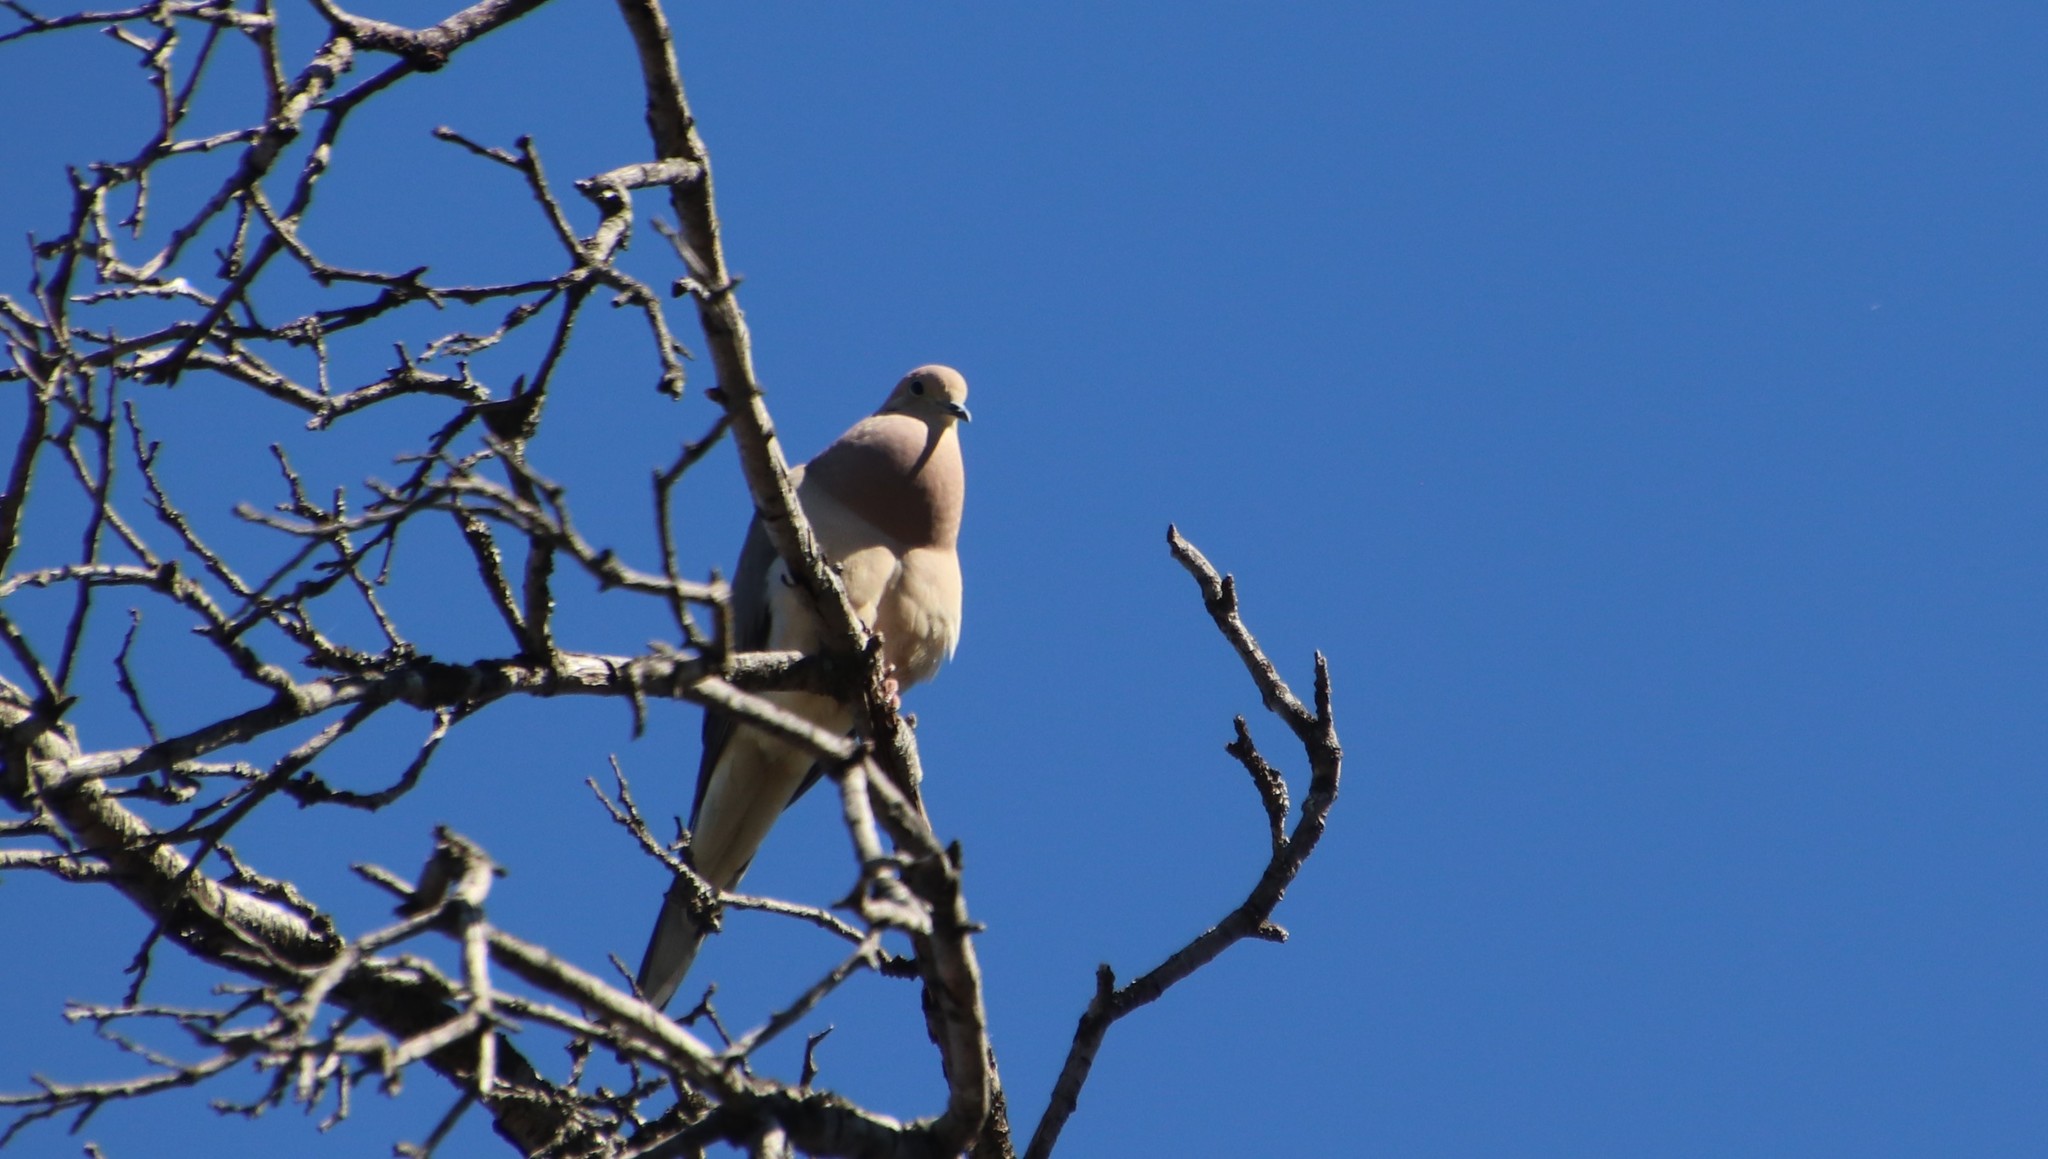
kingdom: Animalia
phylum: Chordata
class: Aves
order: Columbiformes
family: Columbidae
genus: Zenaida
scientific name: Zenaida macroura
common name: Mourning dove
